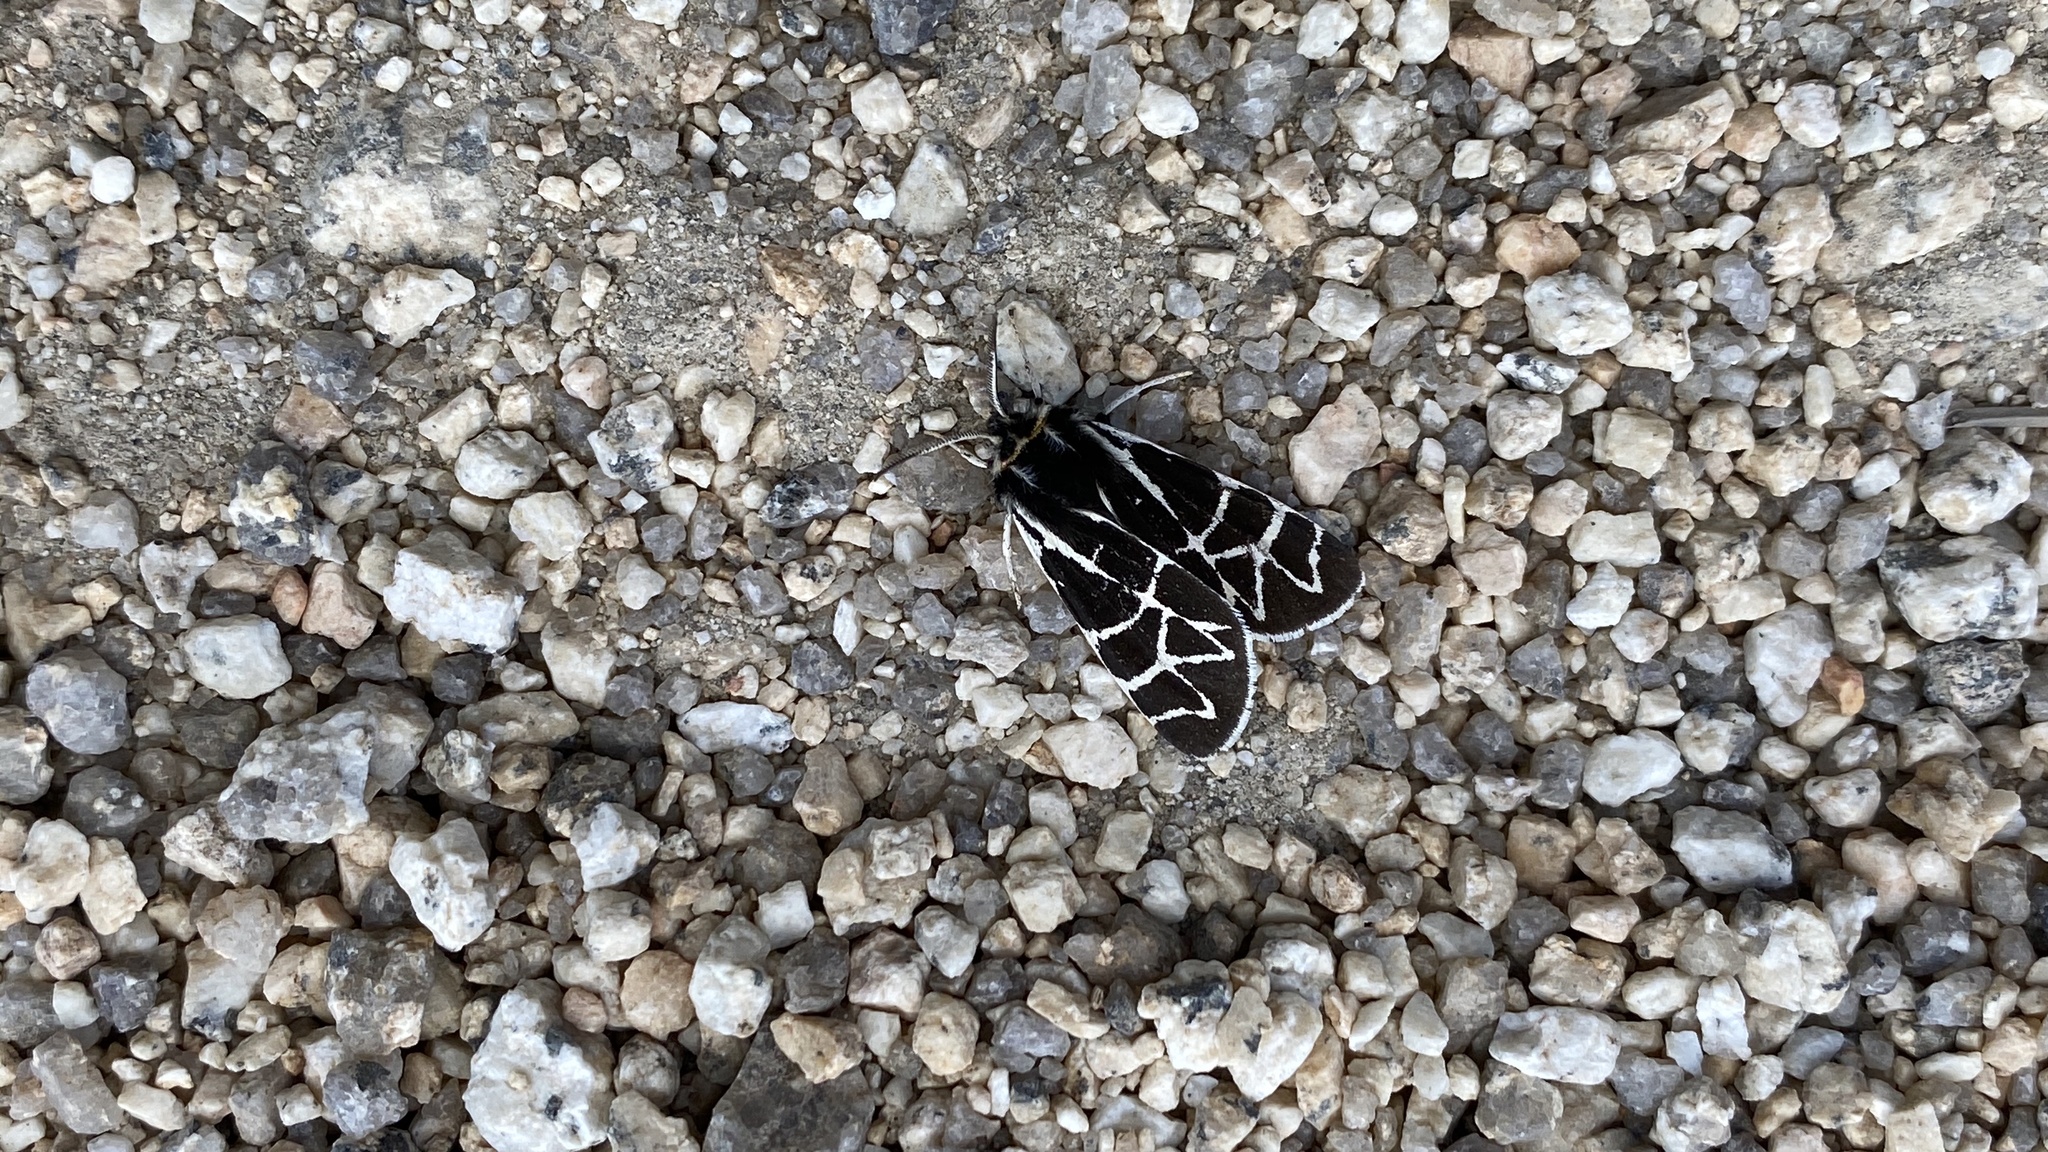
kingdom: Animalia
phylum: Arthropoda
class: Insecta
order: Lepidoptera
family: Erebidae
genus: Apantesis
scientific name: Apantesis
